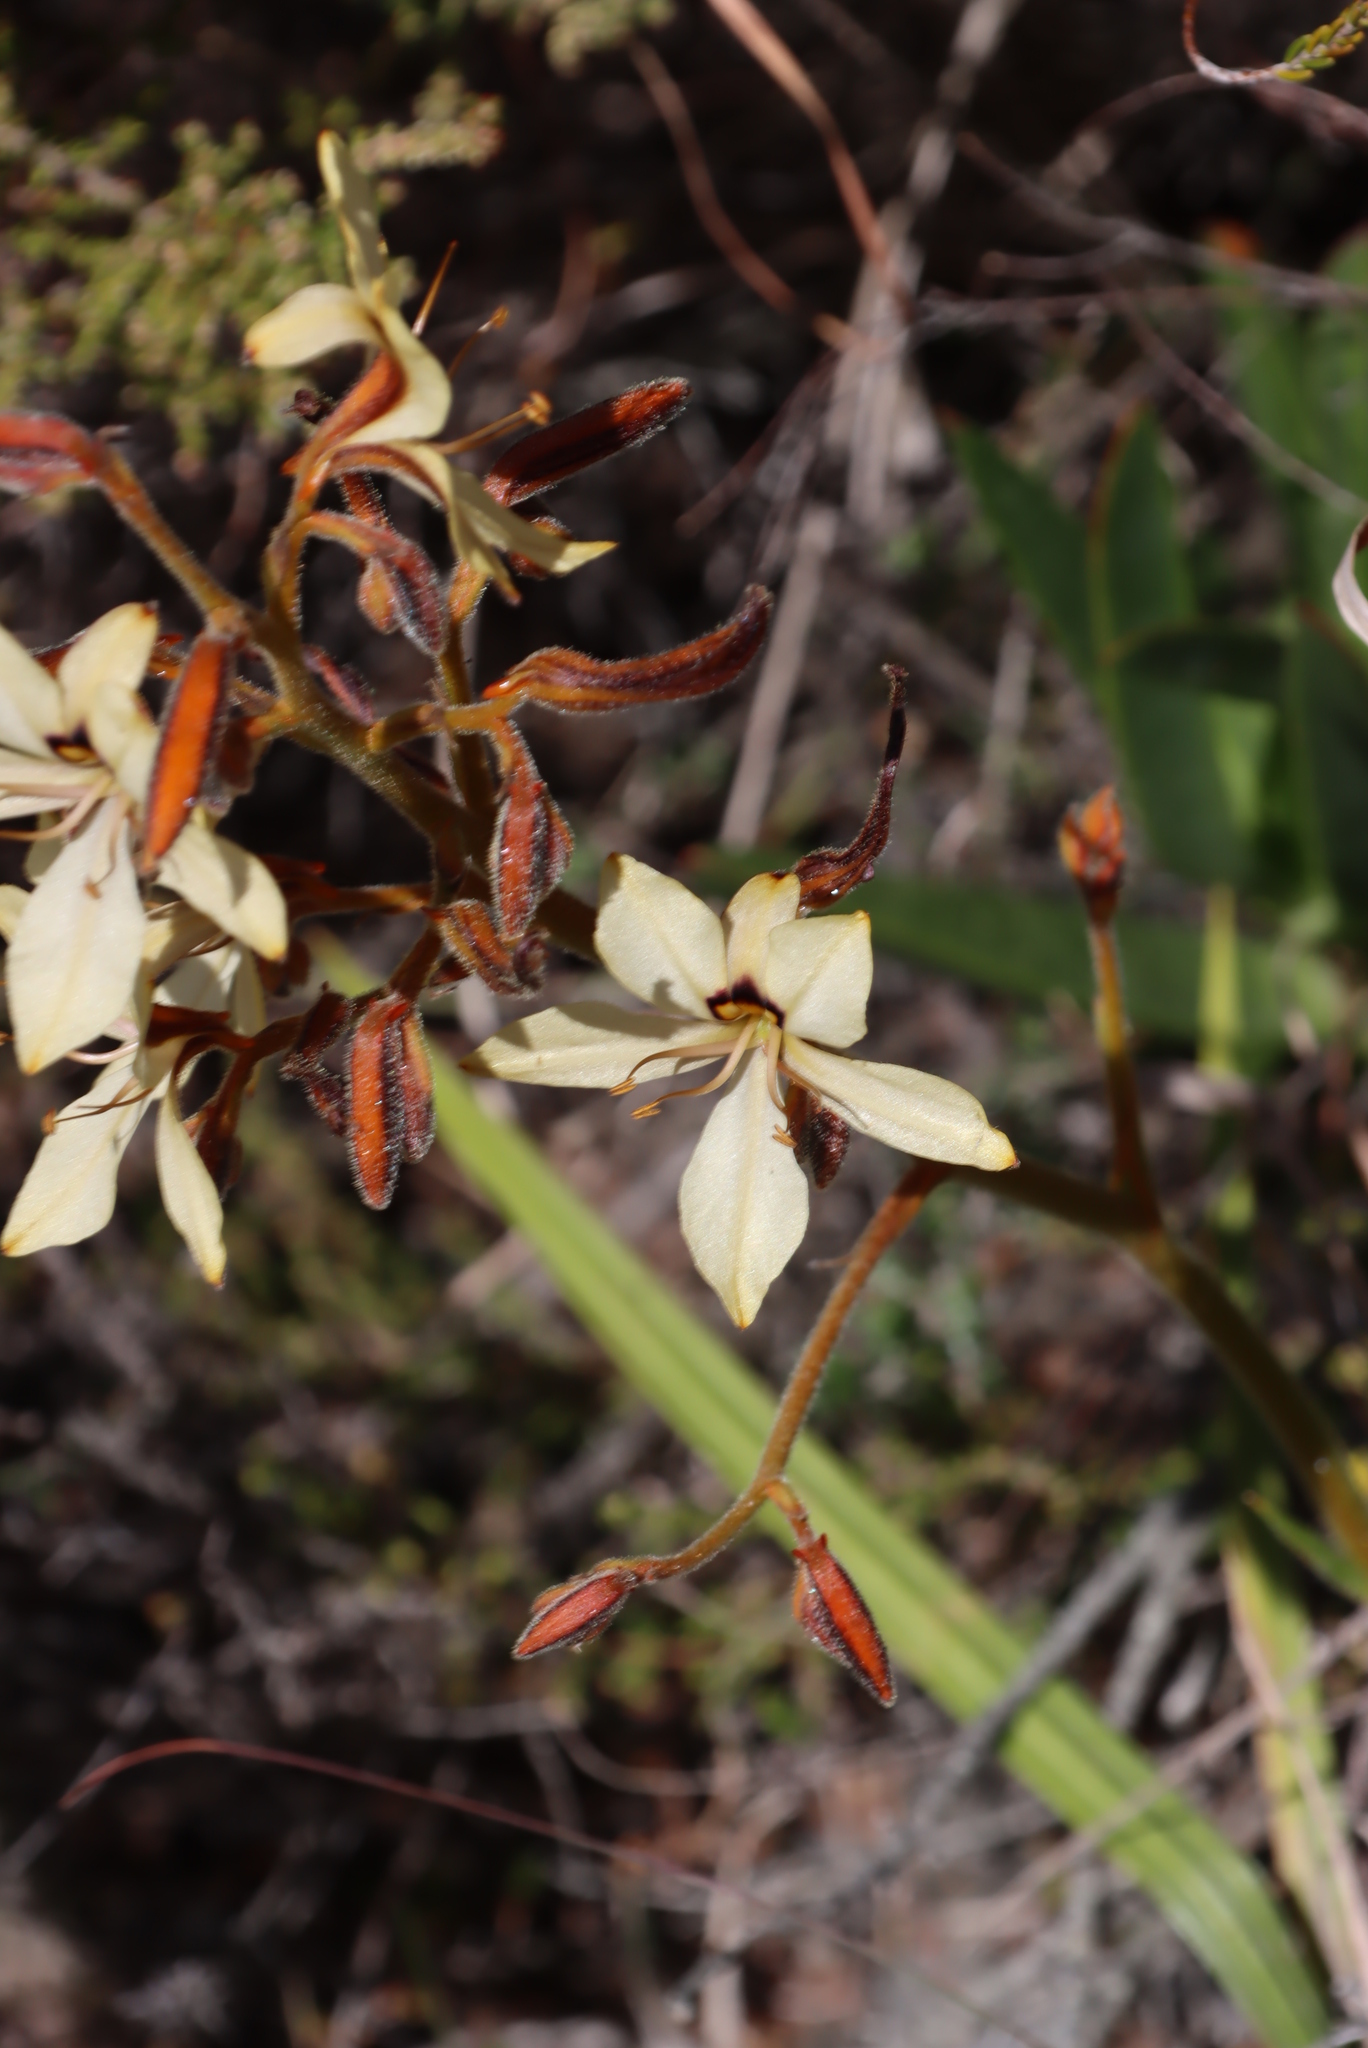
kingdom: Plantae
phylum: Tracheophyta
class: Liliopsida
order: Commelinales
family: Haemodoraceae
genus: Wachendorfia
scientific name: Wachendorfia paniculata
